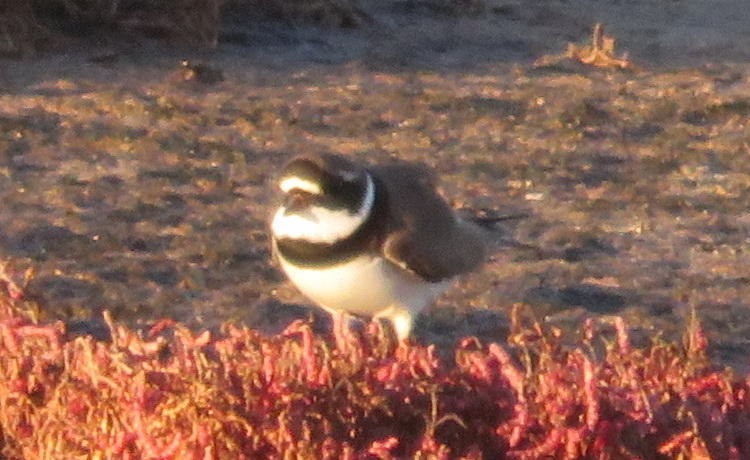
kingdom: Animalia
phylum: Chordata
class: Aves
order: Charadriiformes
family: Charadriidae
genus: Charadrius
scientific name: Charadrius hiaticula
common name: Common ringed plover
